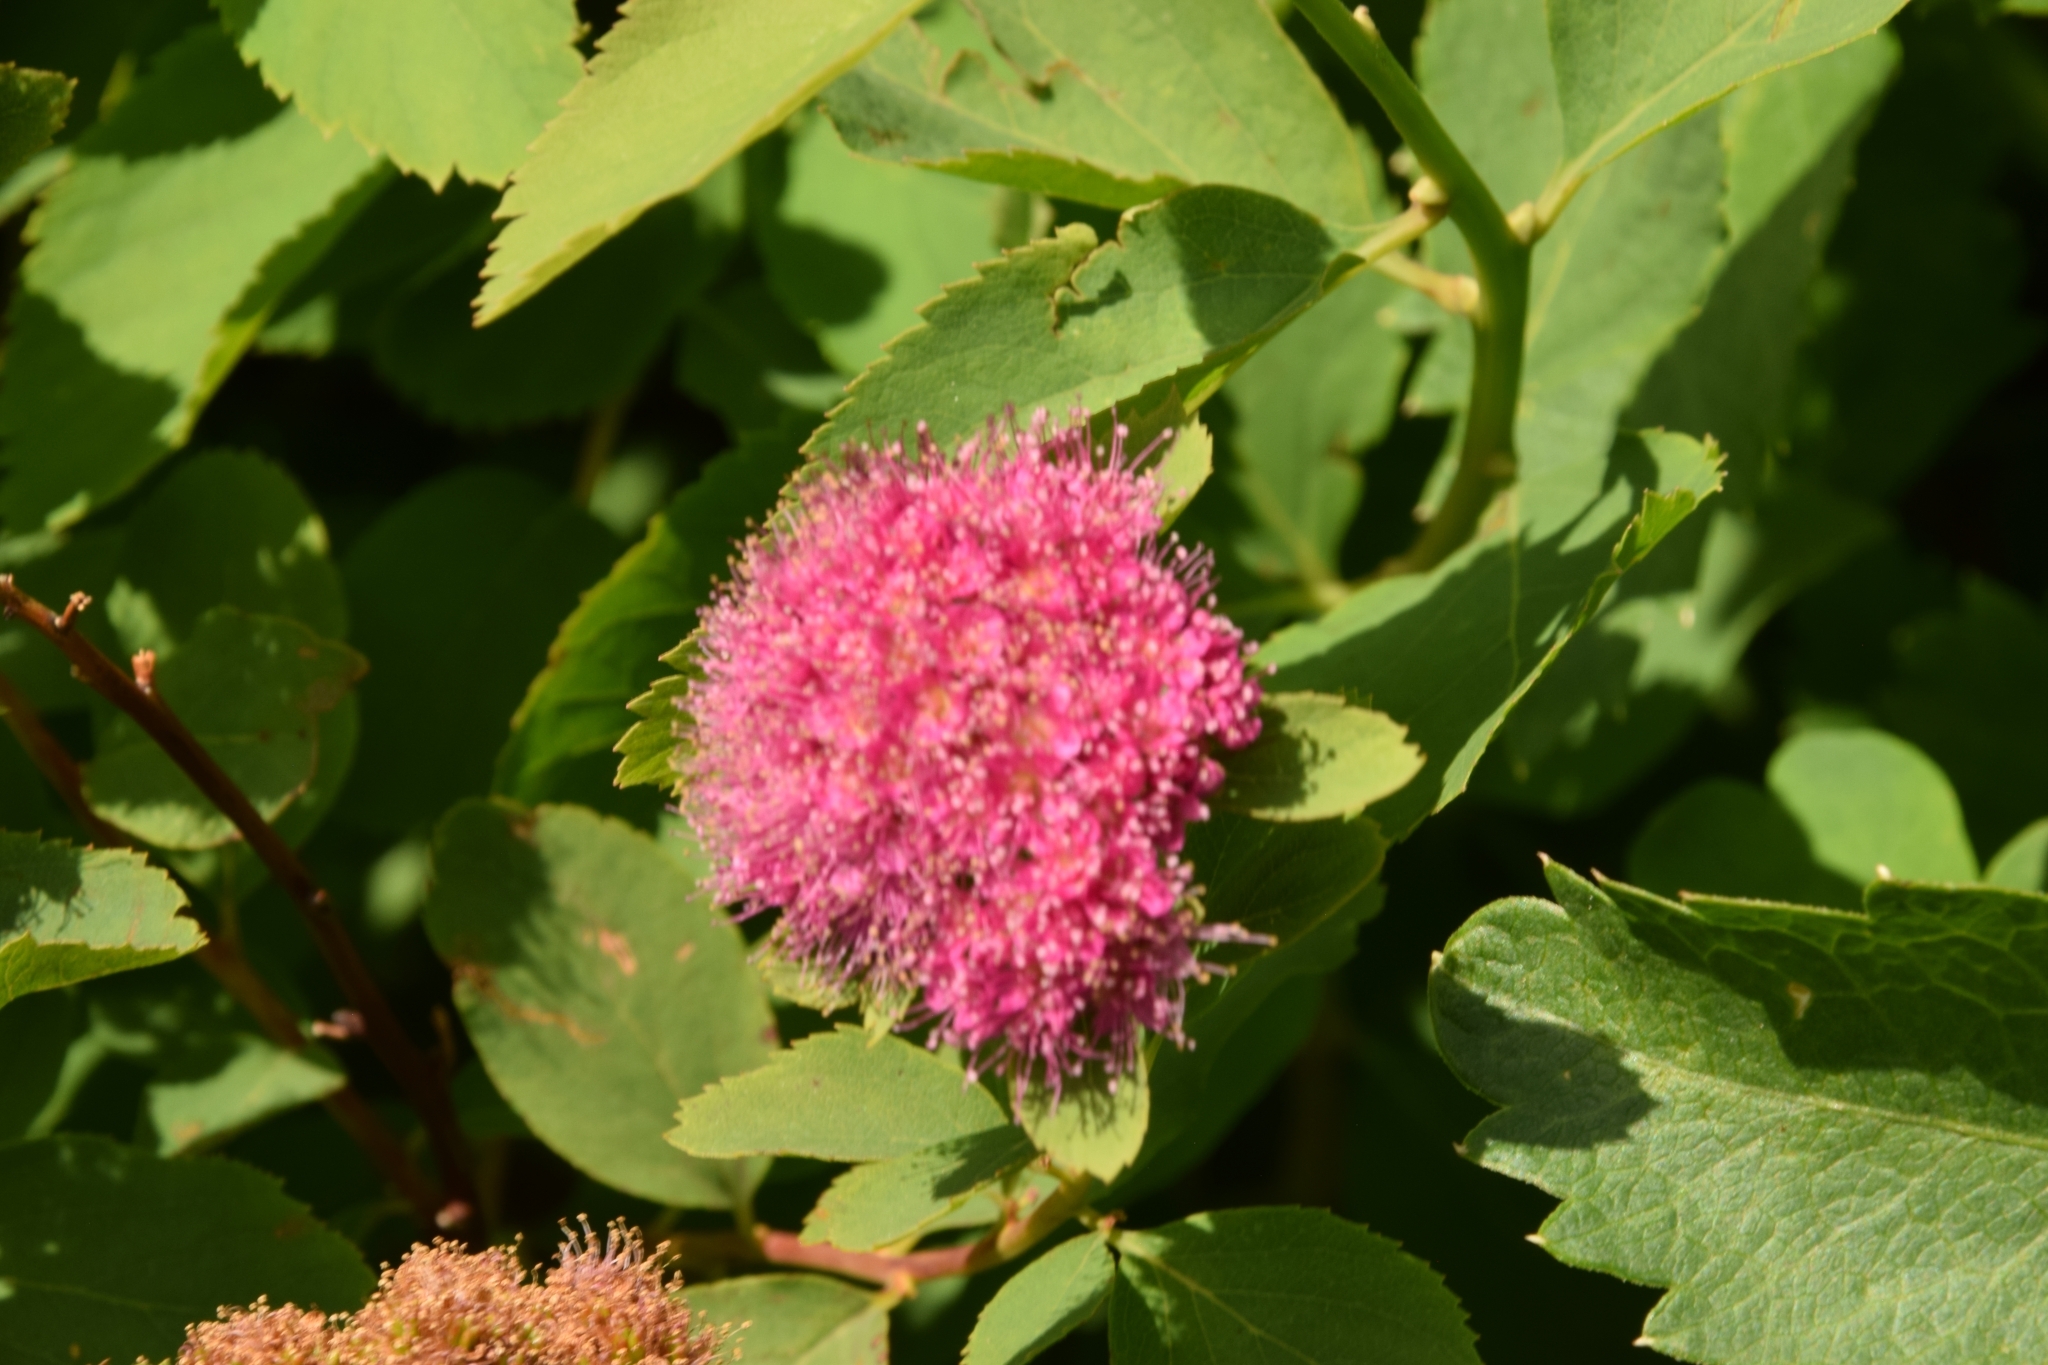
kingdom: Plantae
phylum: Tracheophyta
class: Magnoliopsida
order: Rosales
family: Rosaceae
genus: Spiraea
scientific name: Spiraea splendens
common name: Subalpine meadowsweet
